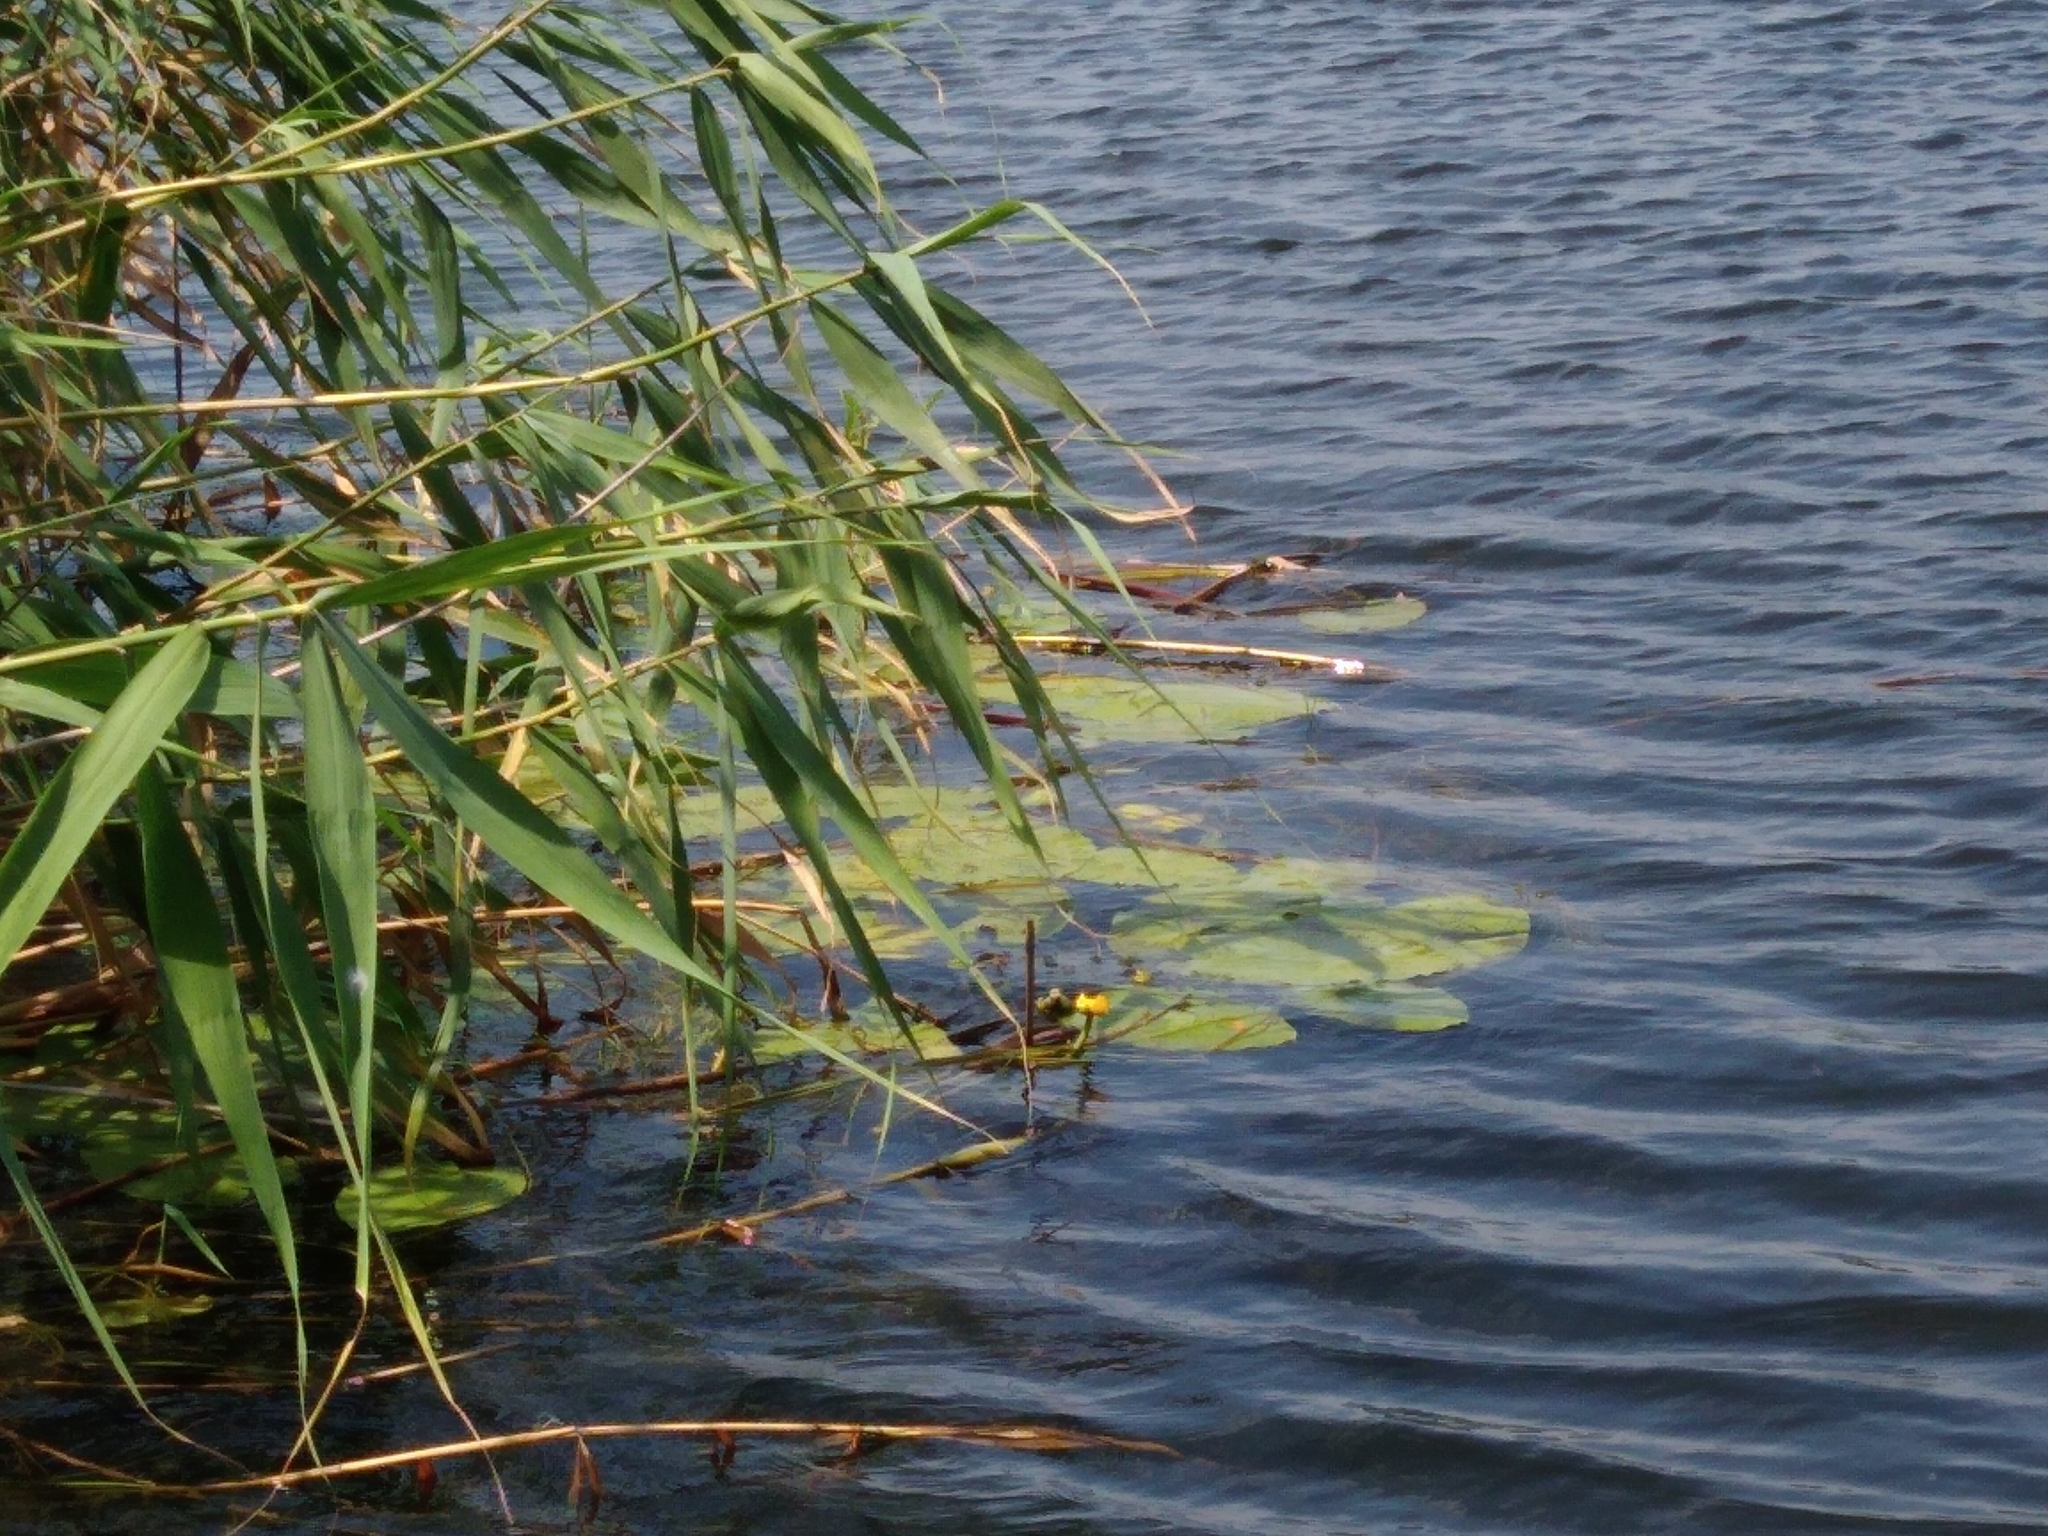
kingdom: Plantae
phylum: Tracheophyta
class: Magnoliopsida
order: Nymphaeales
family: Nymphaeaceae
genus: Nuphar
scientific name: Nuphar lutea
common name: Yellow water-lily
